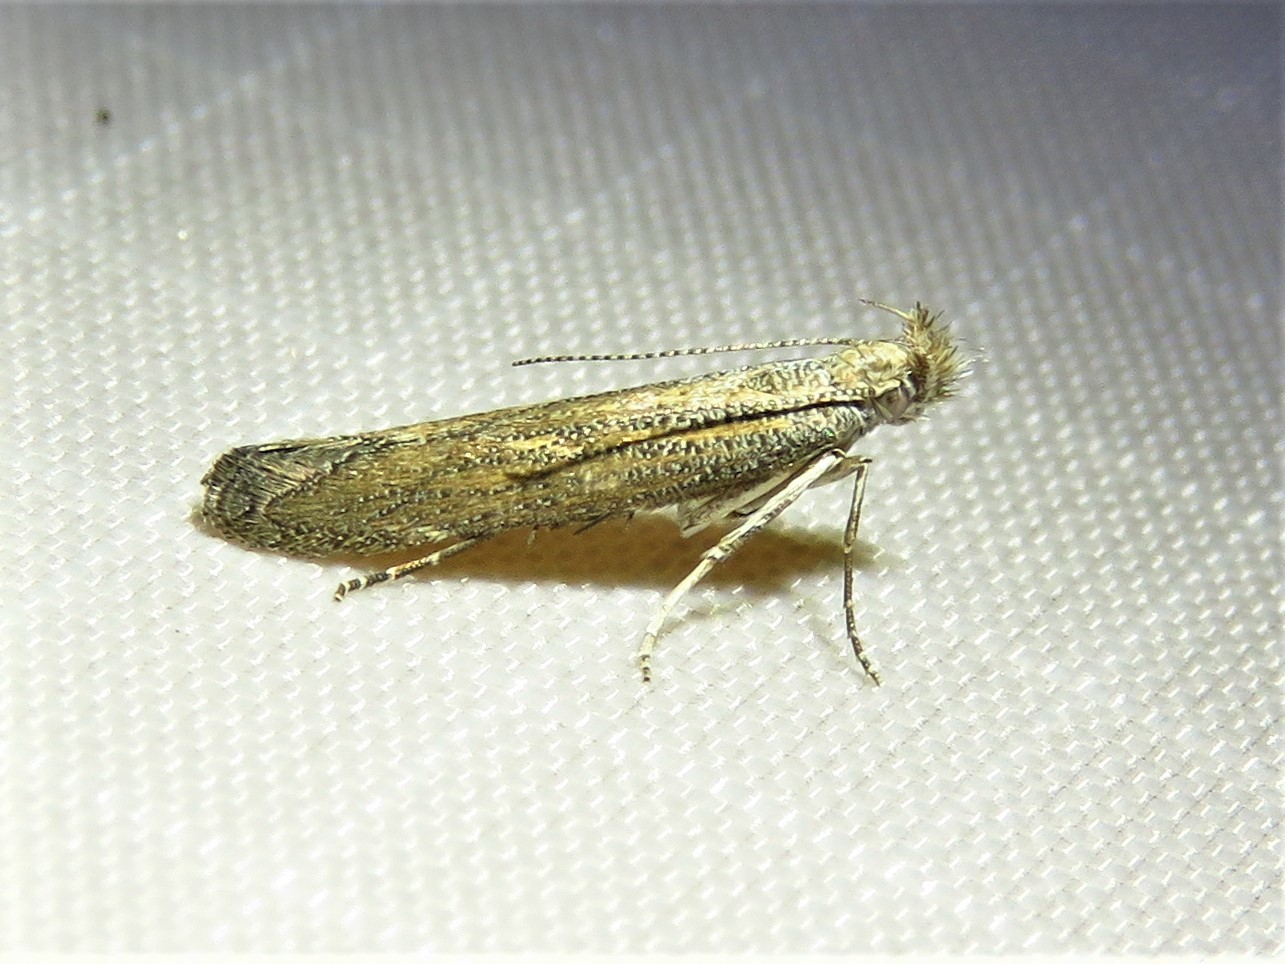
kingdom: Animalia
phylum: Arthropoda
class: Insecta
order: Lepidoptera
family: Gelechiidae
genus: Isophrictis
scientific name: Isophrictis similiella
